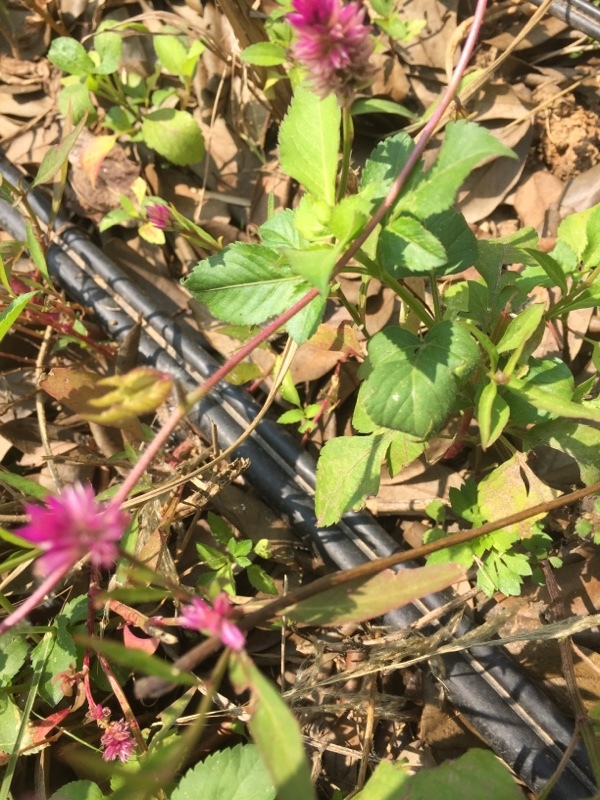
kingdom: Plantae
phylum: Tracheophyta
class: Magnoliopsida
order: Caryophyllales
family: Amaranthaceae
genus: Celosia
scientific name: Celosia argentea
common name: Feather cockscomb
